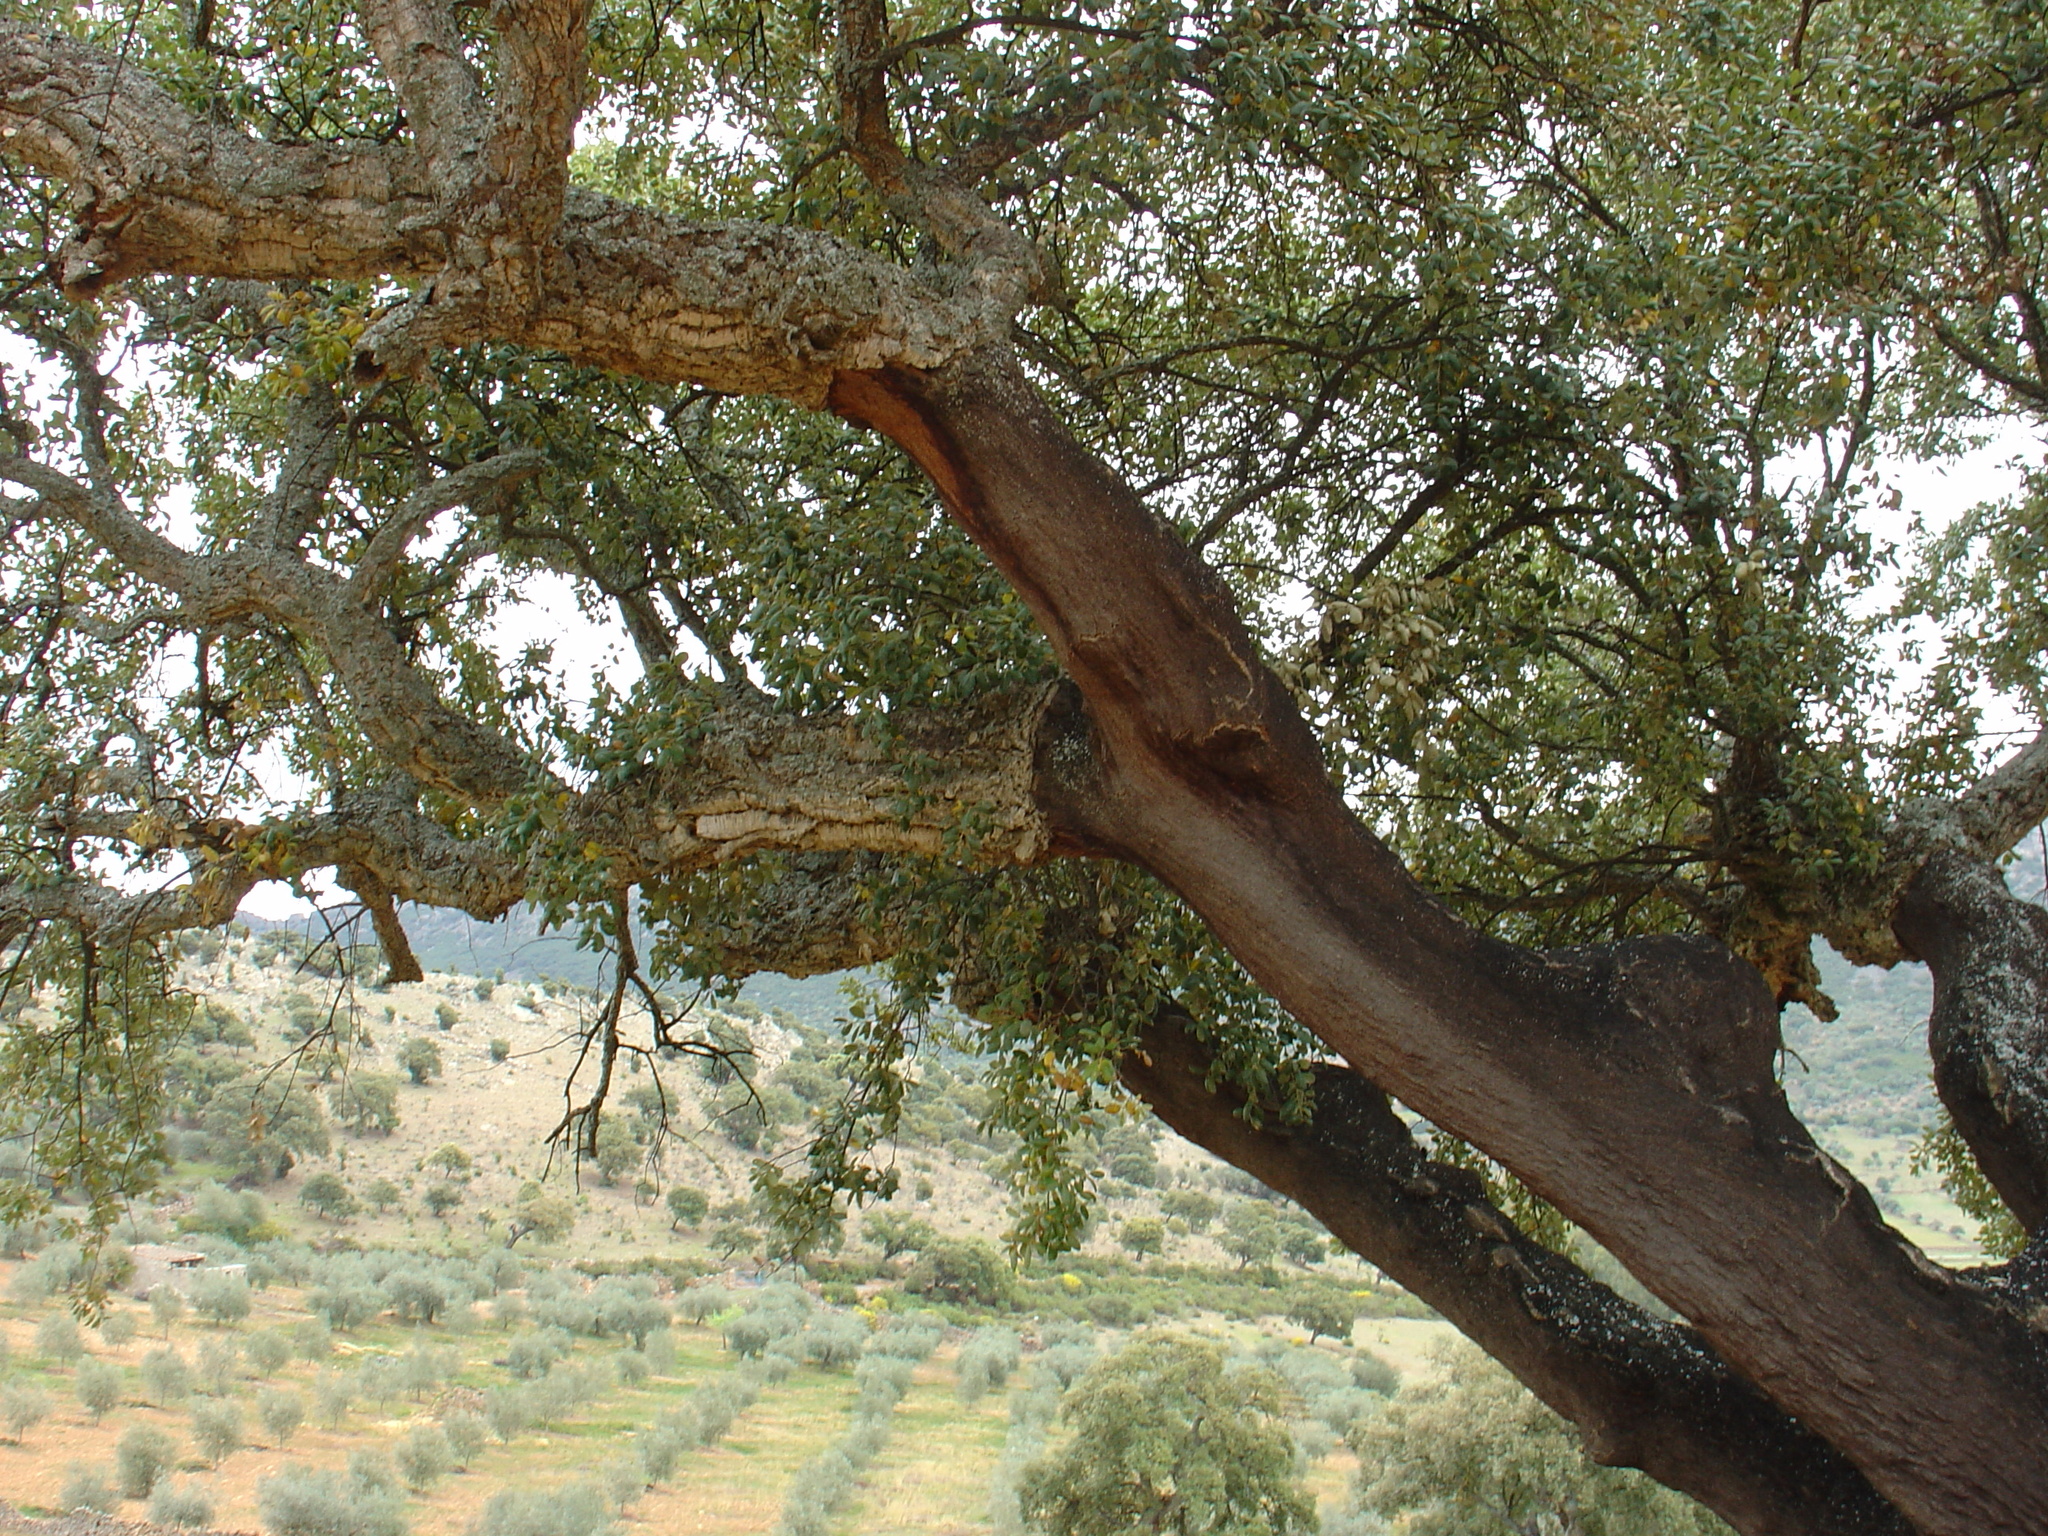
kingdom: Plantae
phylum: Tracheophyta
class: Magnoliopsida
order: Fagales
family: Fagaceae
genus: Quercus
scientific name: Quercus suber
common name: Cork oak
